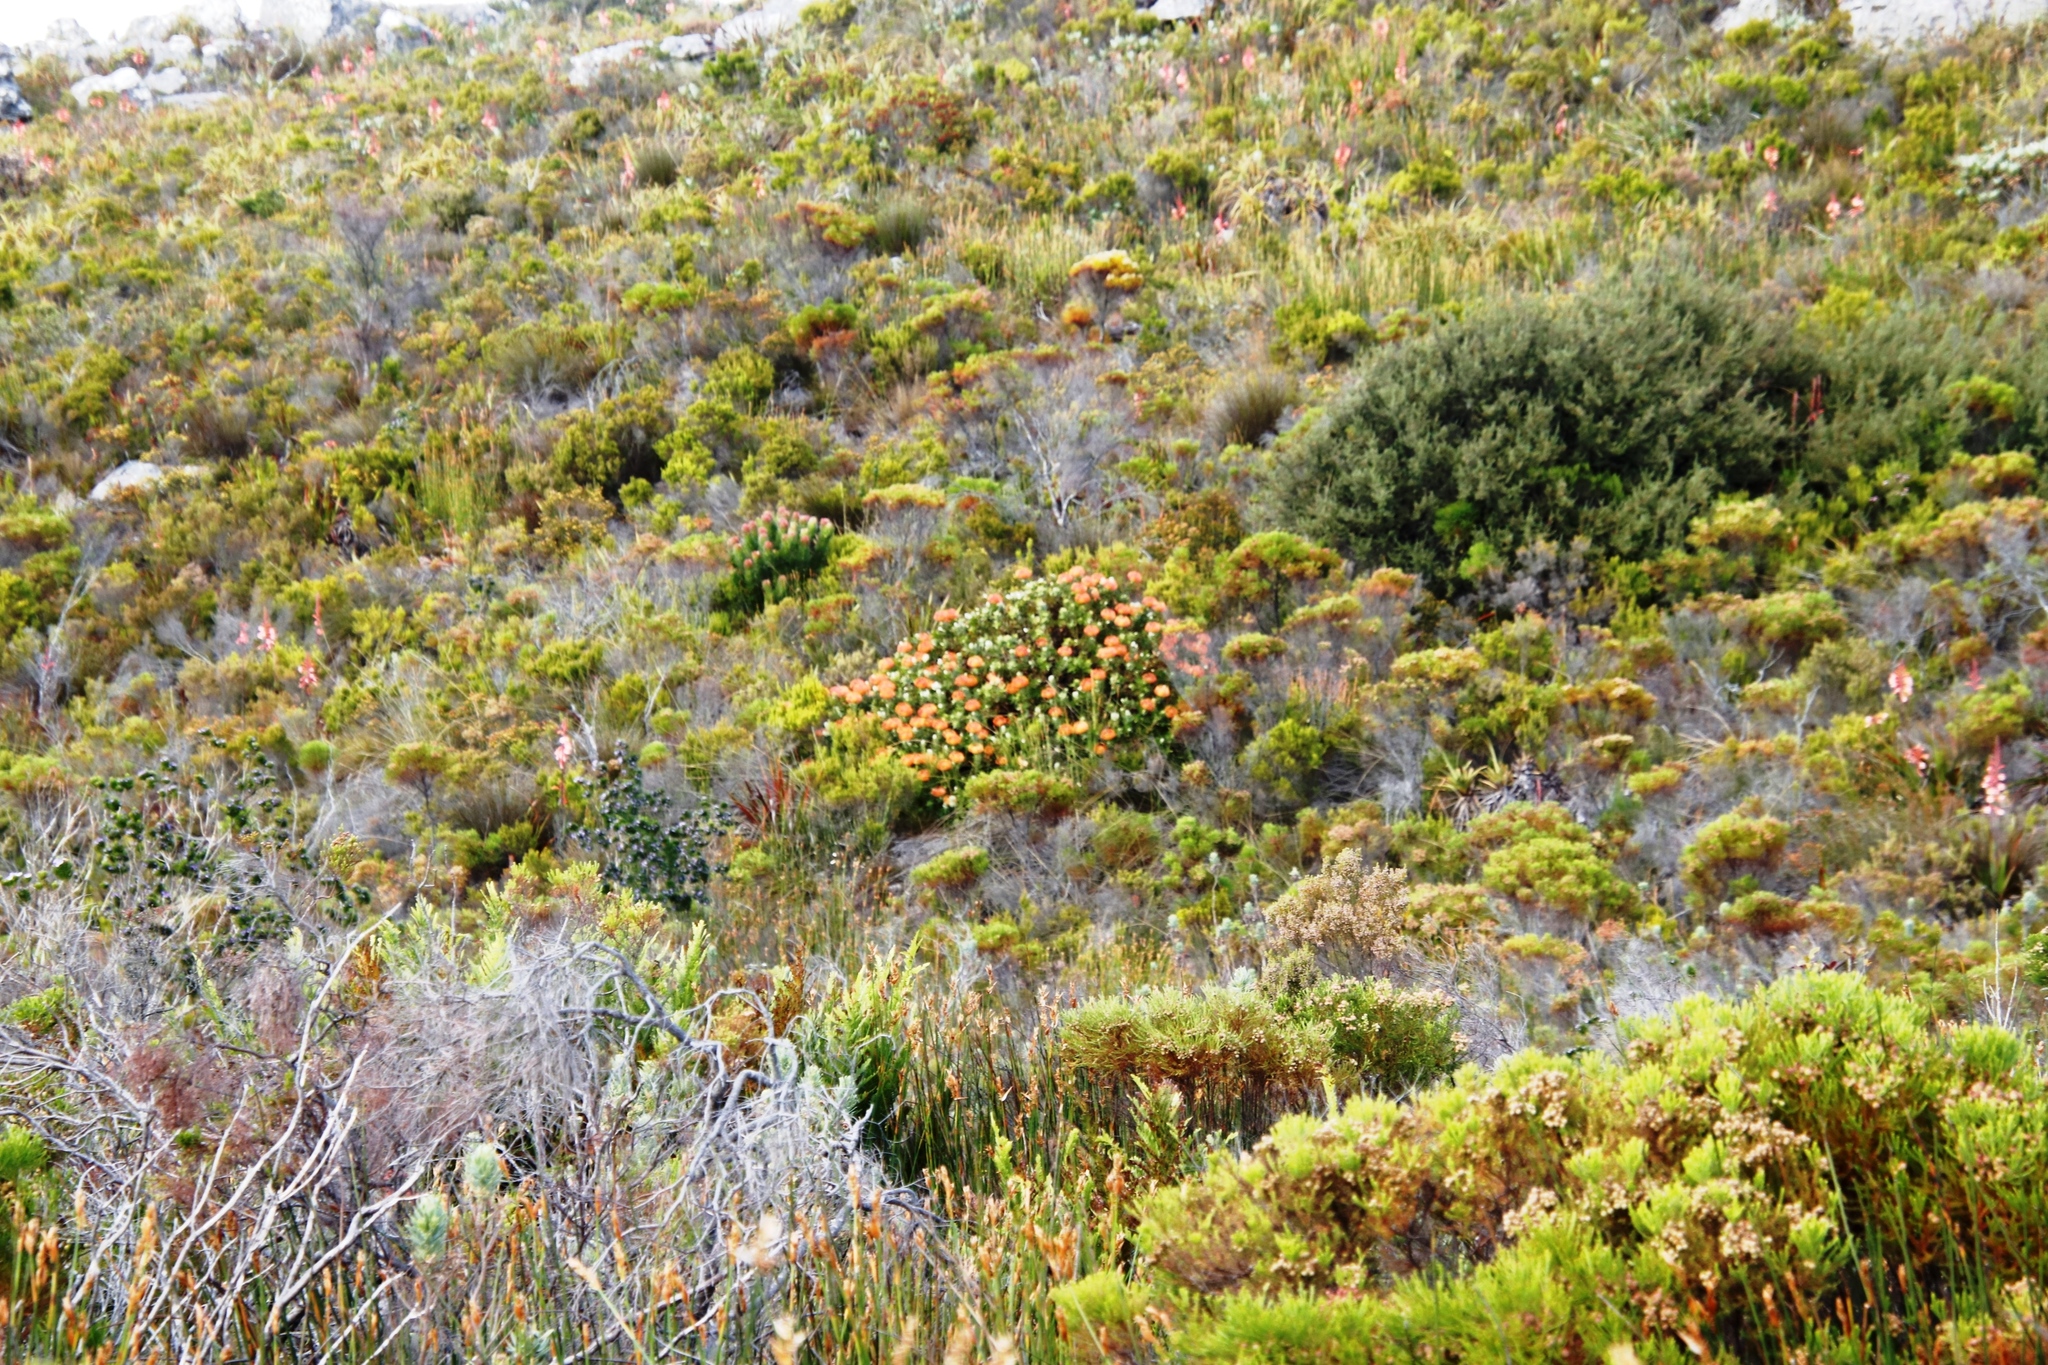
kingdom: Plantae
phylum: Tracheophyta
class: Magnoliopsida
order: Proteales
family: Proteaceae
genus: Leucospermum
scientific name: Leucospermum cordifolium
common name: Red pincushion-protea
